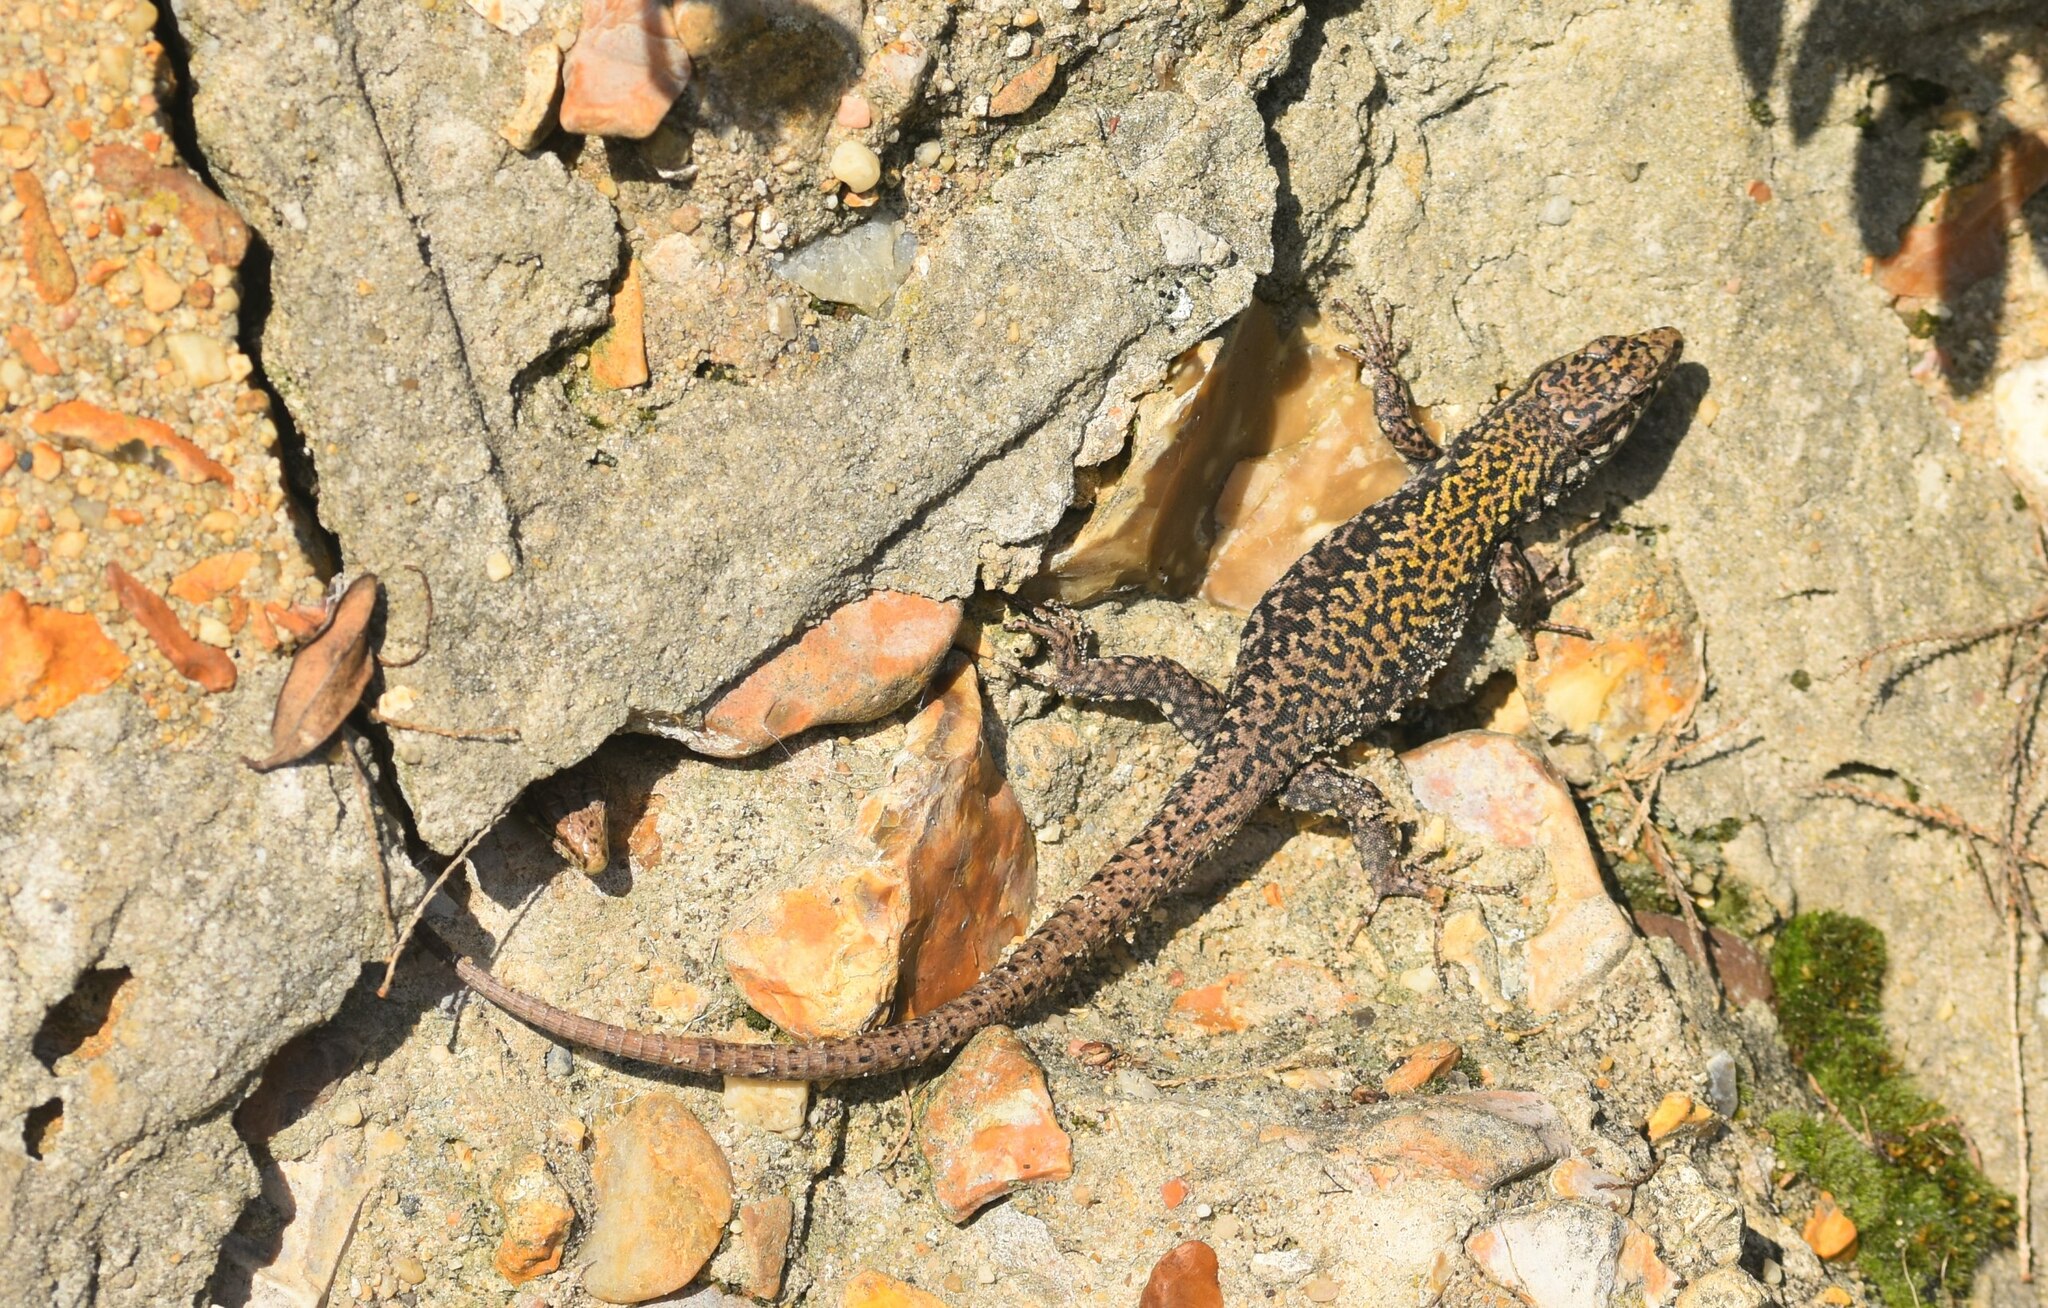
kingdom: Animalia
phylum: Chordata
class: Squamata
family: Lacertidae
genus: Podarcis
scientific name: Podarcis muralis
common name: Common wall lizard
